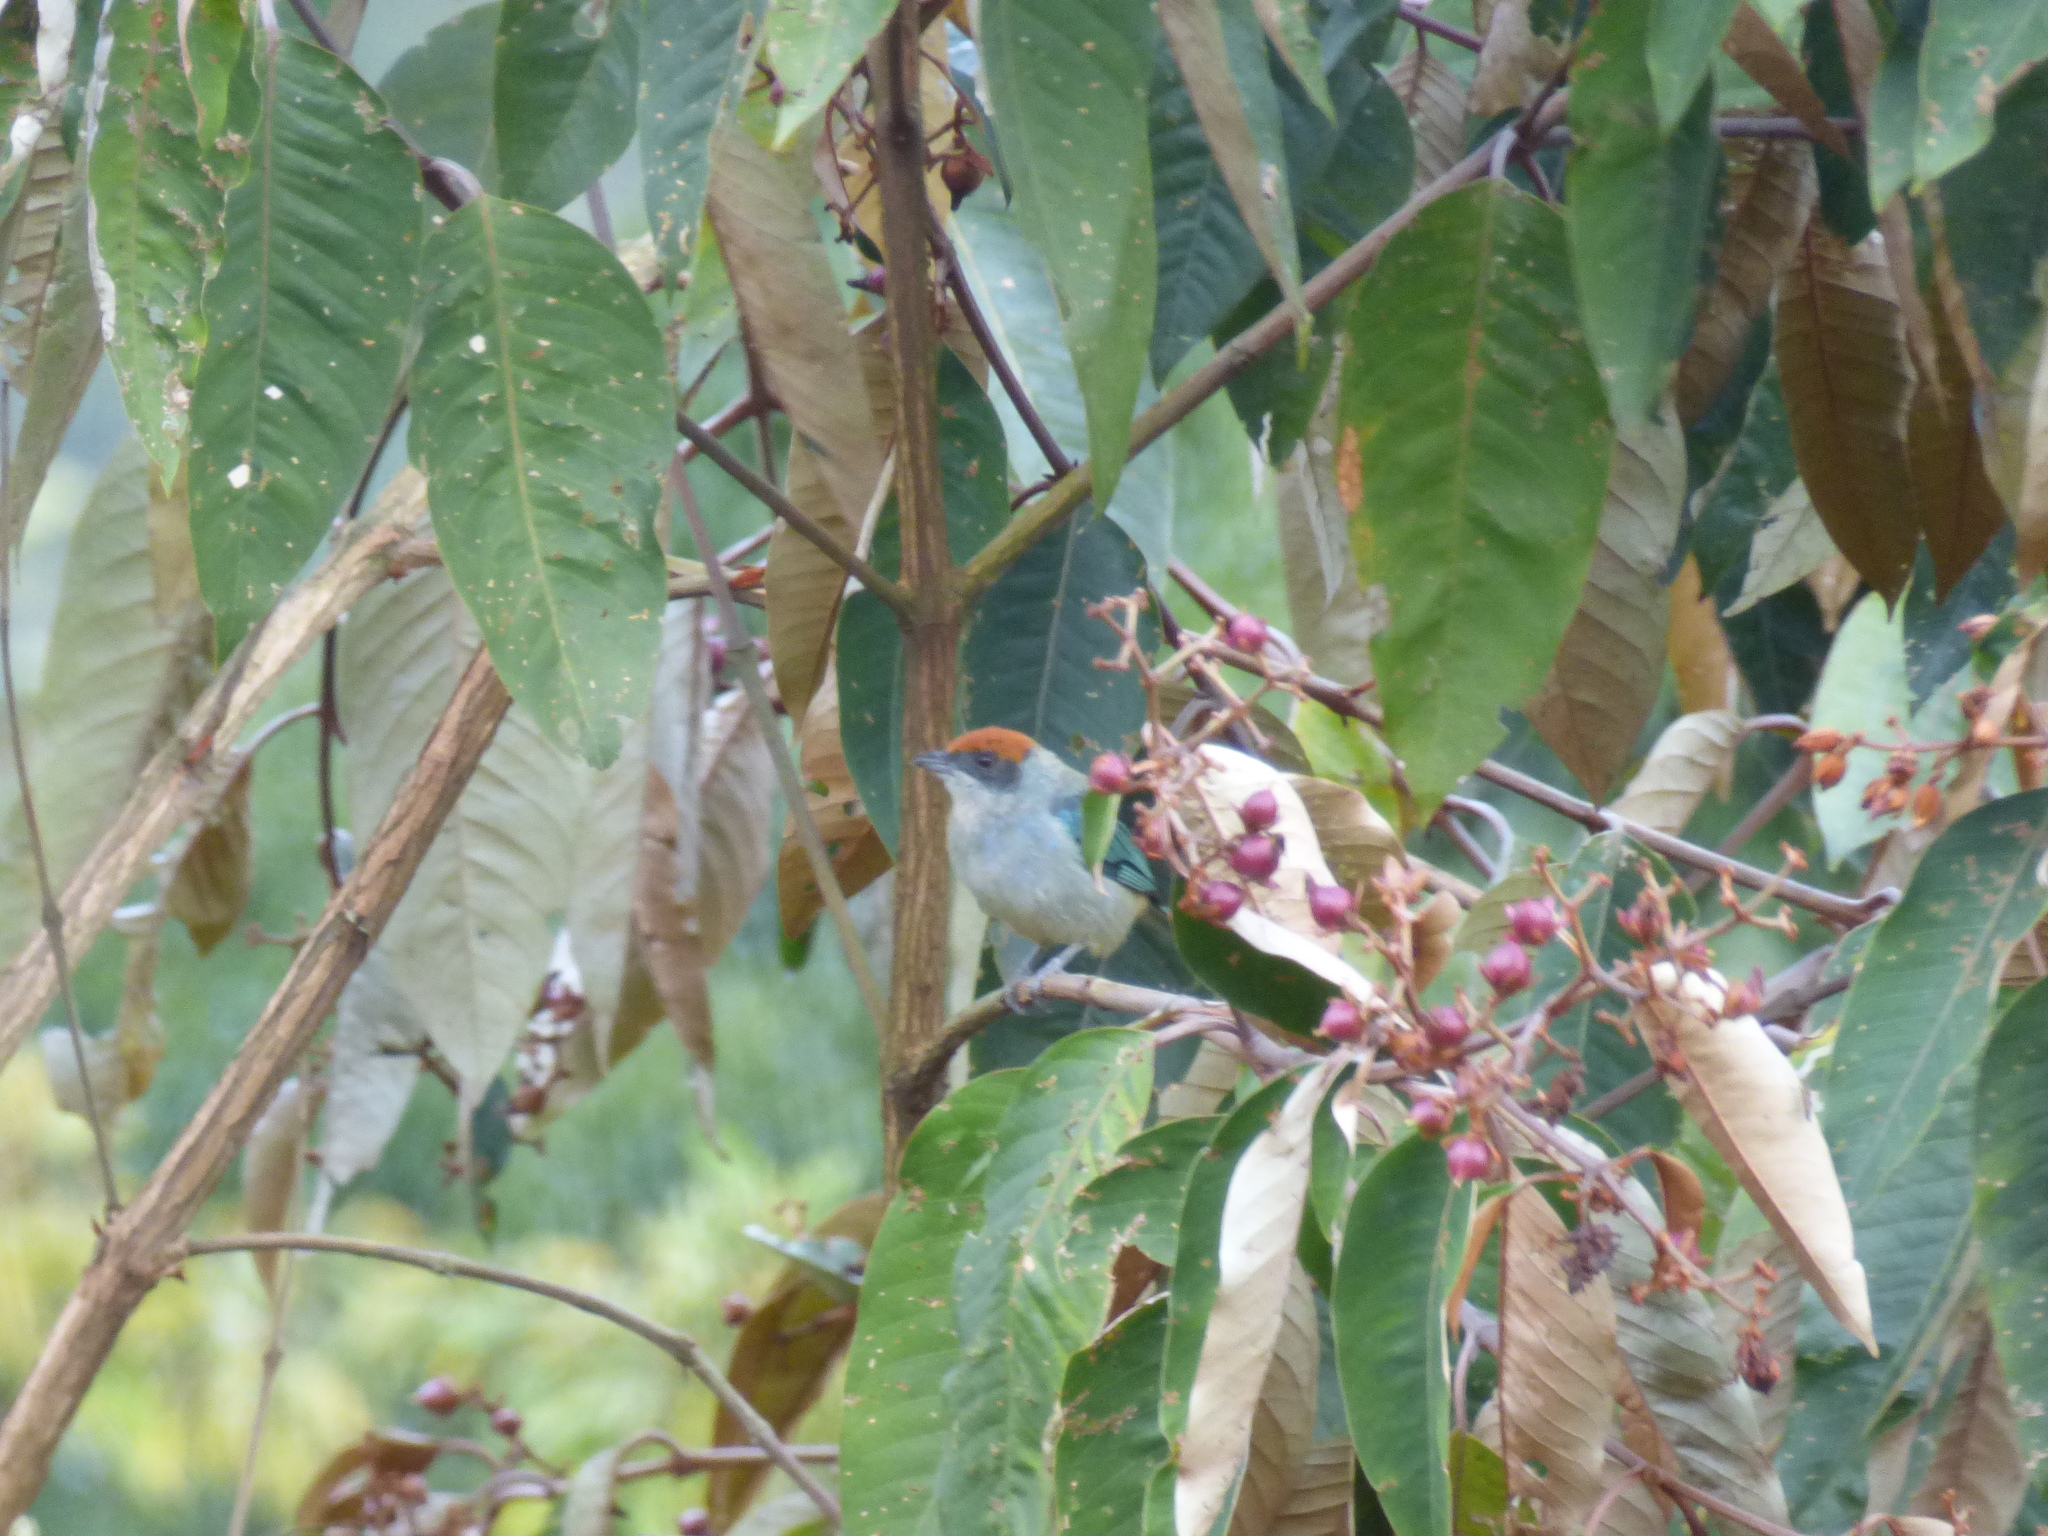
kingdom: Animalia
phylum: Chordata
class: Aves
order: Passeriformes
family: Thraupidae
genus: Stilpnia
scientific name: Stilpnia vitriolina
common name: Scrub tanager
